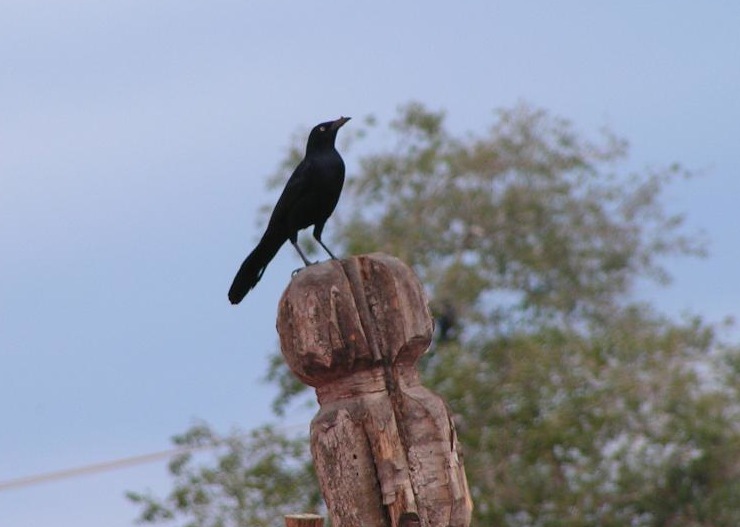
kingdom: Animalia
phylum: Chordata
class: Aves
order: Passeriformes
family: Icteridae
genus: Quiscalus
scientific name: Quiscalus mexicanus
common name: Great-tailed grackle
